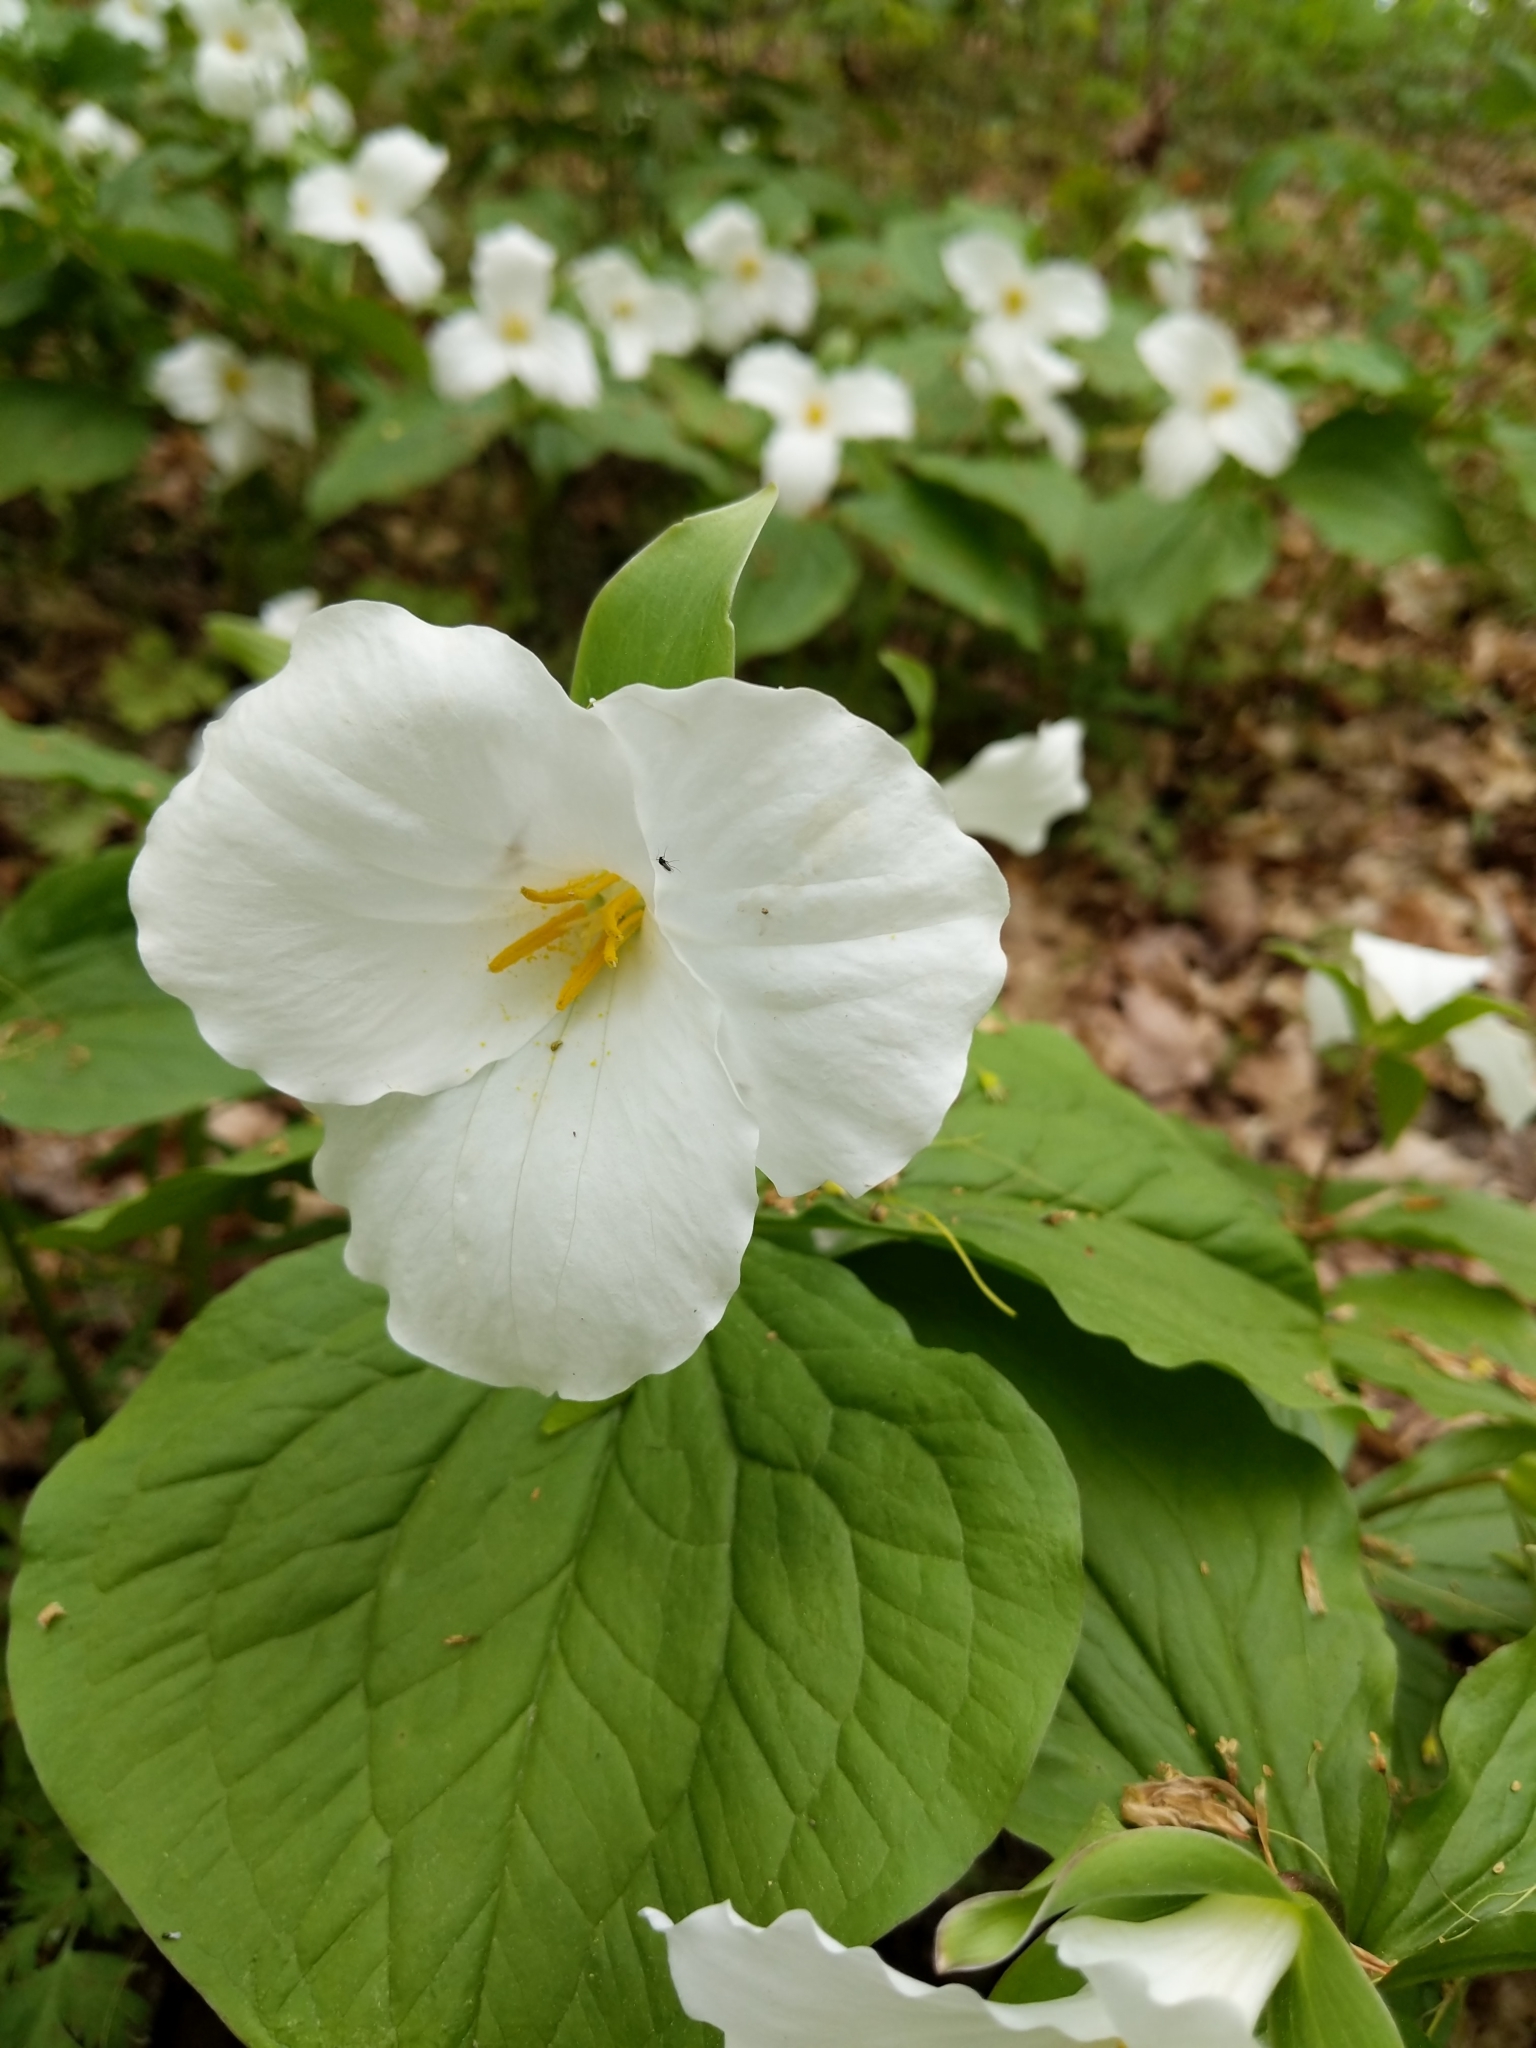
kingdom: Plantae
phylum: Tracheophyta
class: Liliopsida
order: Liliales
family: Melanthiaceae
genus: Trillium
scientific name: Trillium grandiflorum
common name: Great white trillium
